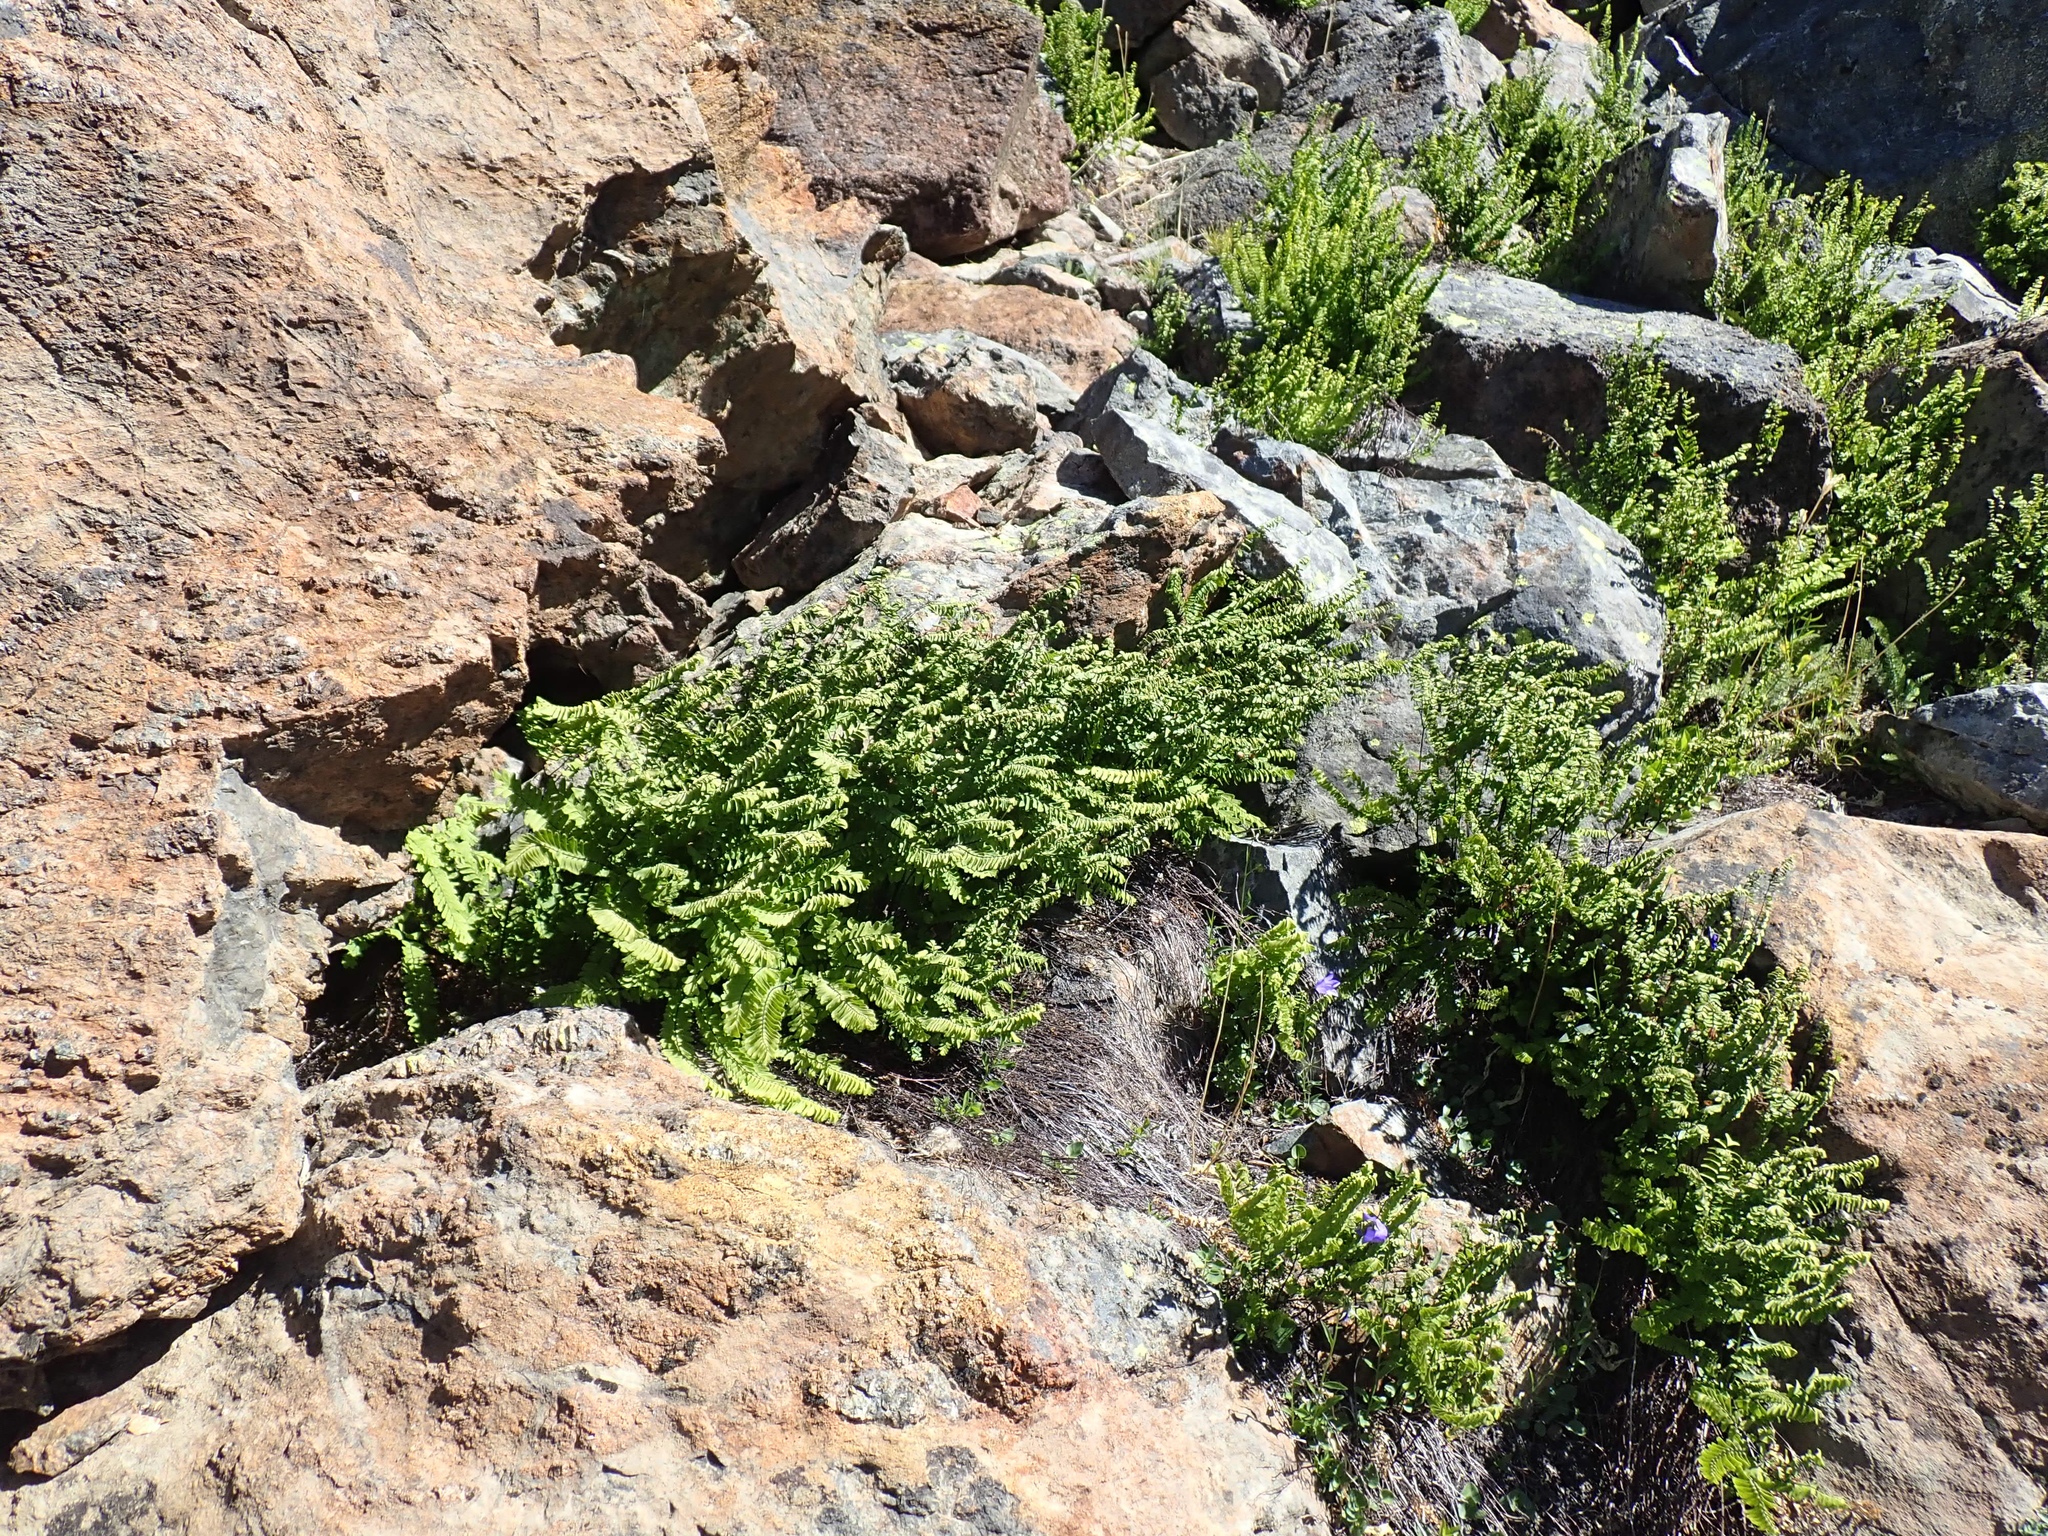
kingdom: Plantae
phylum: Tracheophyta
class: Polypodiopsida
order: Polypodiales
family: Pteridaceae
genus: Adiantum
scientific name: Adiantum aleuticum
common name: Aleutian maidenhair fern
